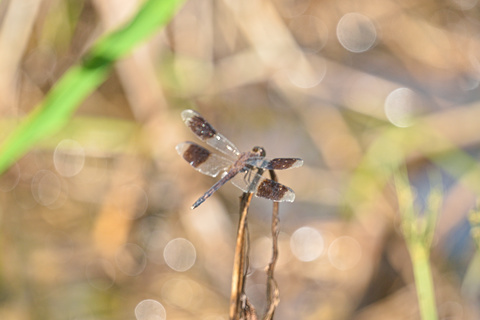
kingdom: Animalia
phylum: Arthropoda
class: Insecta
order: Odonata
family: Libellulidae
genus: Erythrodiplax
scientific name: Erythrodiplax umbrata
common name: Band-winged dragonlet
